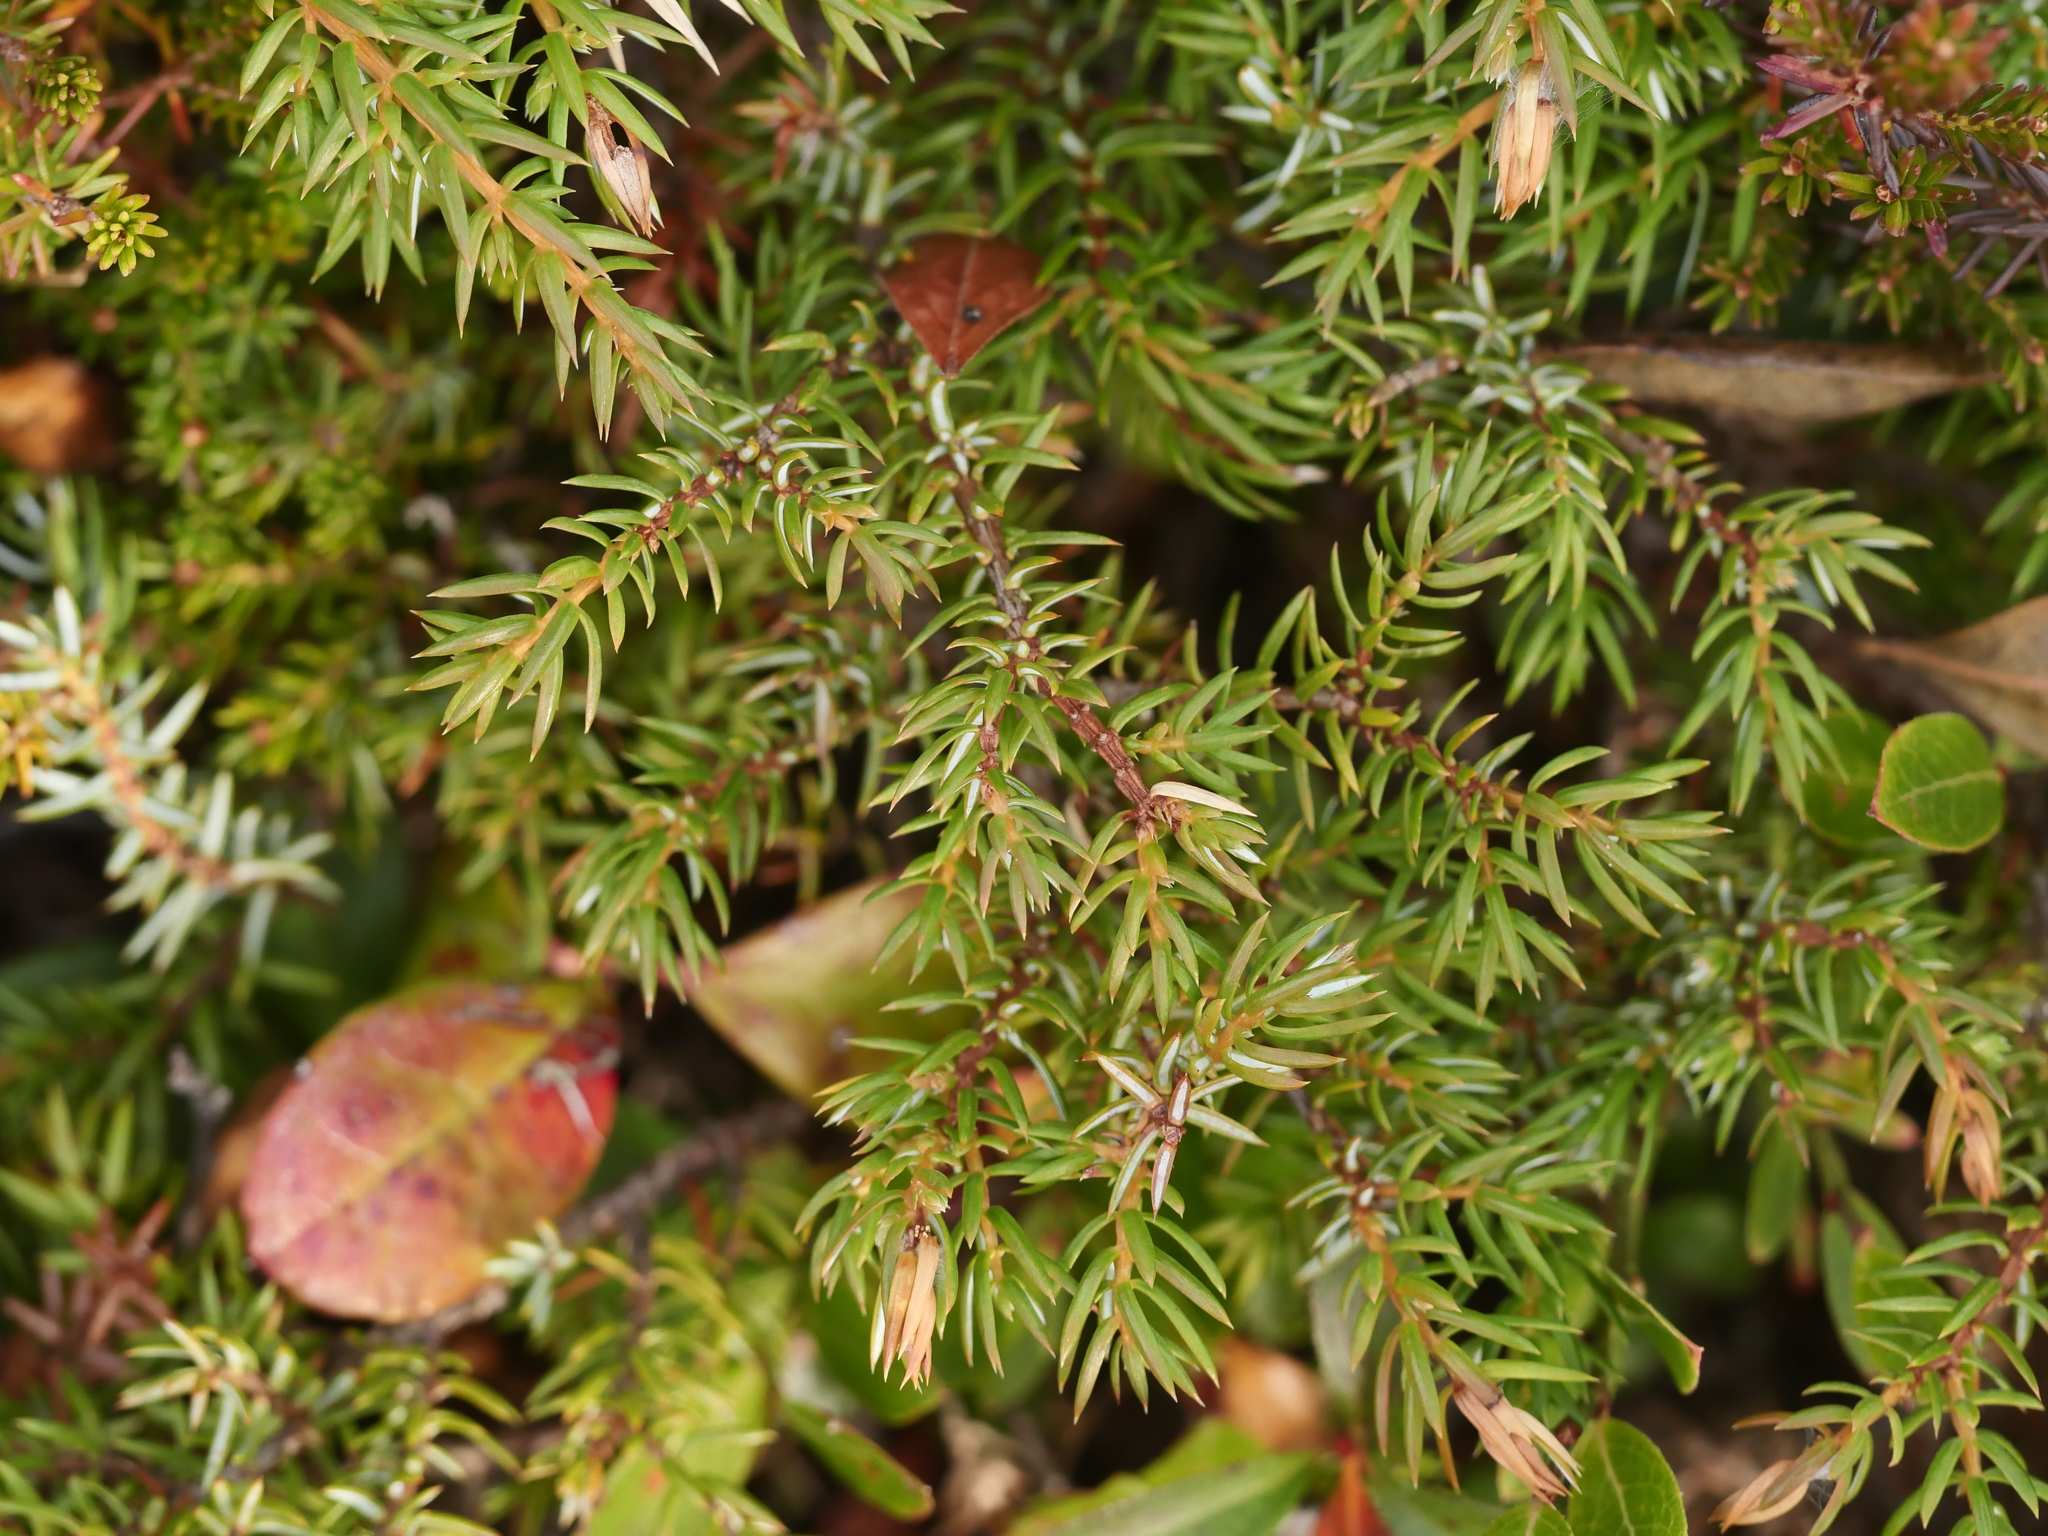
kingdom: Plantae
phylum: Tracheophyta
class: Pinopsida
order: Pinales
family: Cupressaceae
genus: Juniperus
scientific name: Juniperus communis
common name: Common juniper
